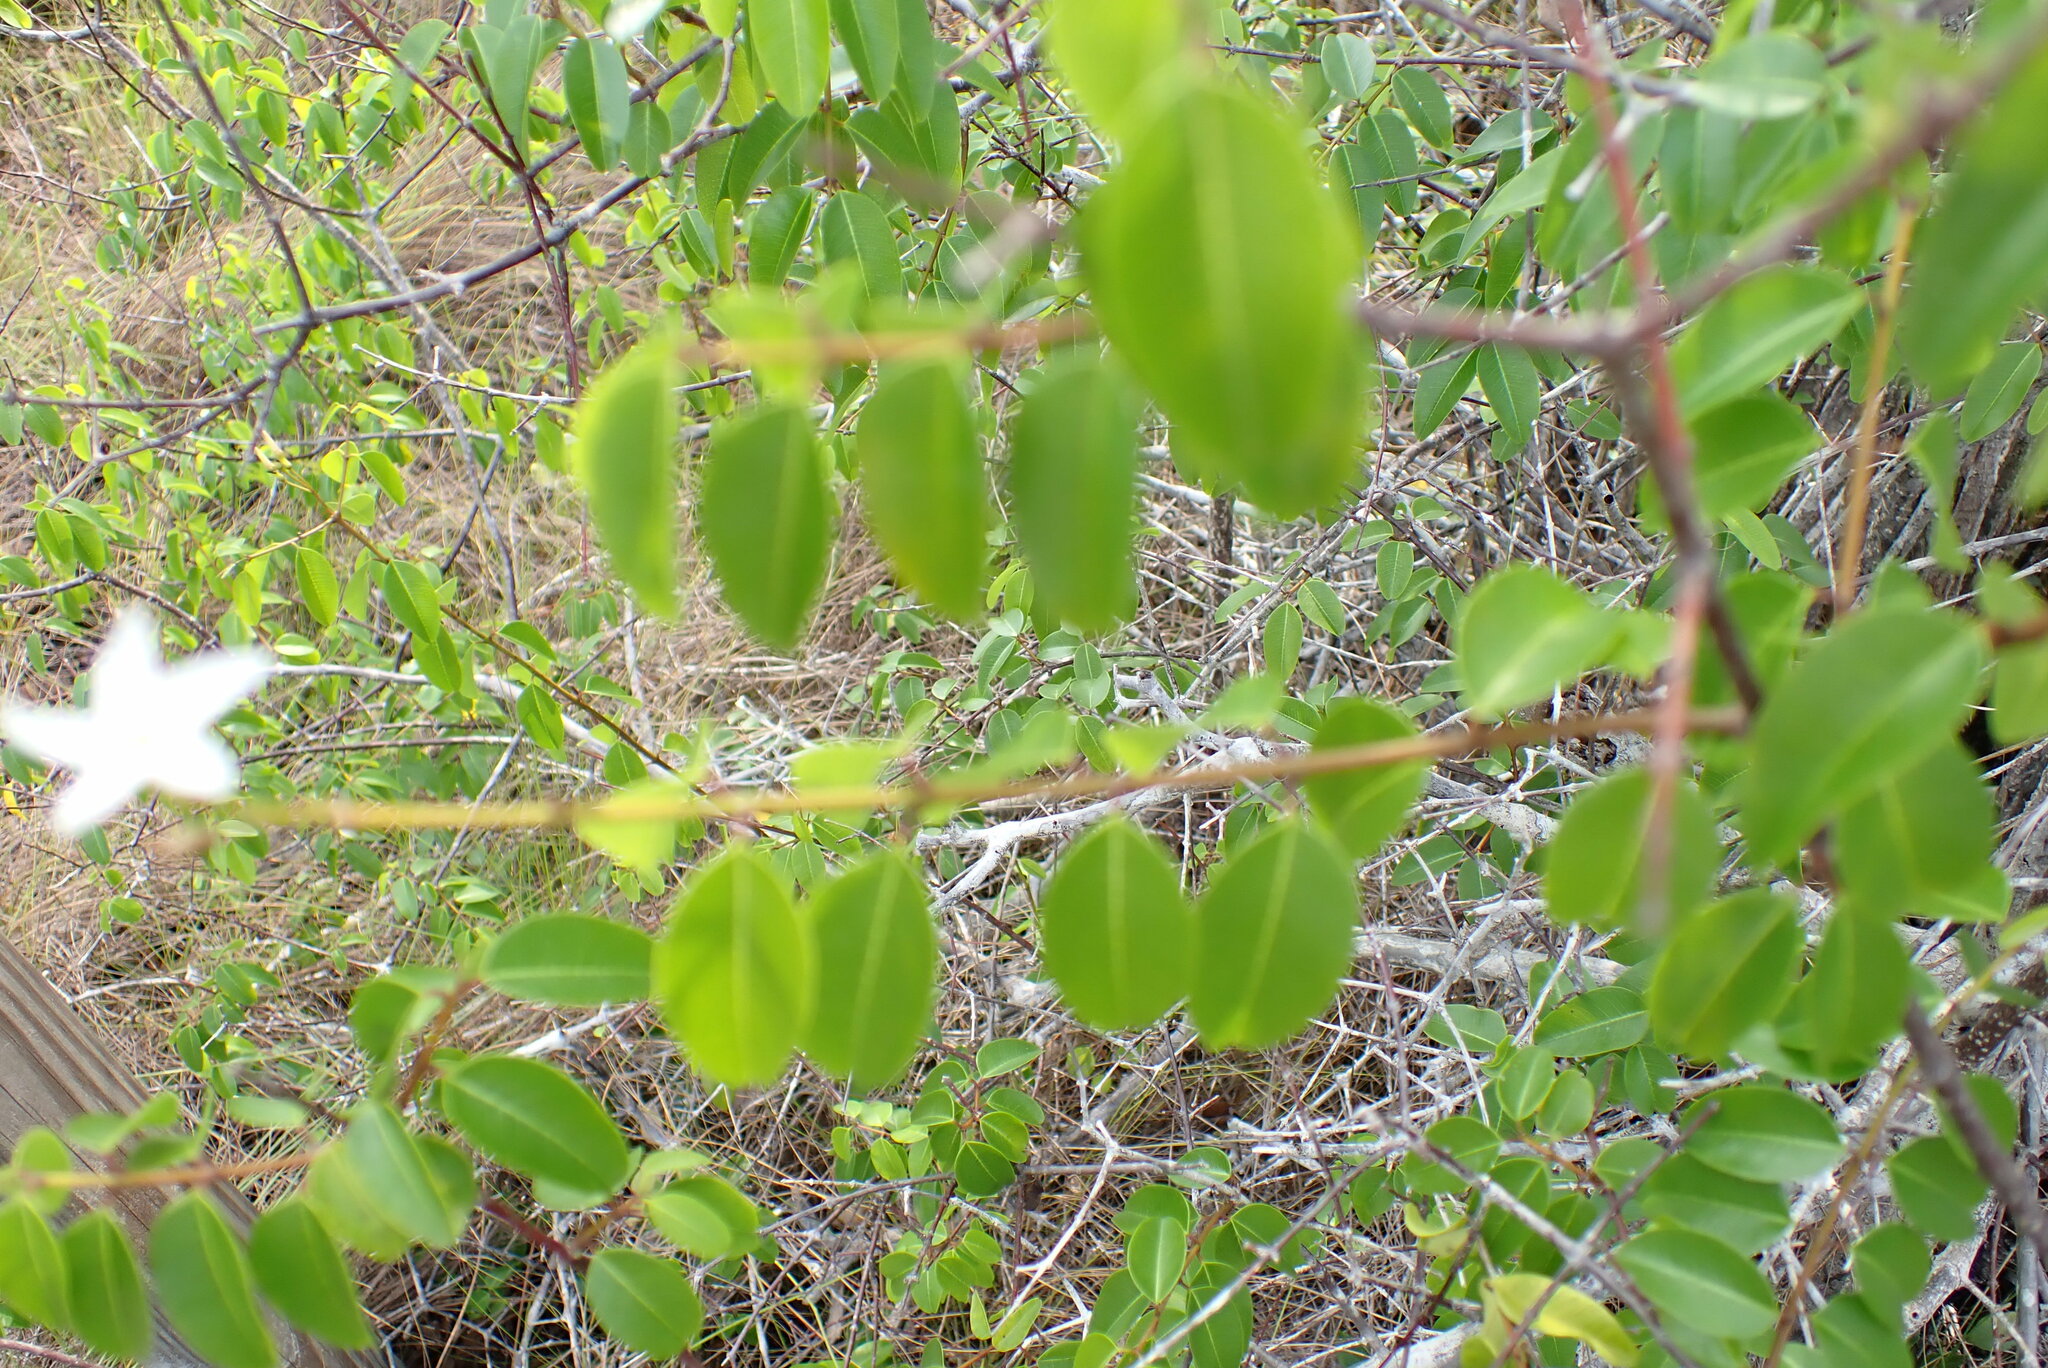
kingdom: Plantae
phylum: Tracheophyta
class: Magnoliopsida
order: Gentianales
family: Apocynaceae
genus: Cameraria
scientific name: Cameraria latifolia
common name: Savanna white poisonwood
